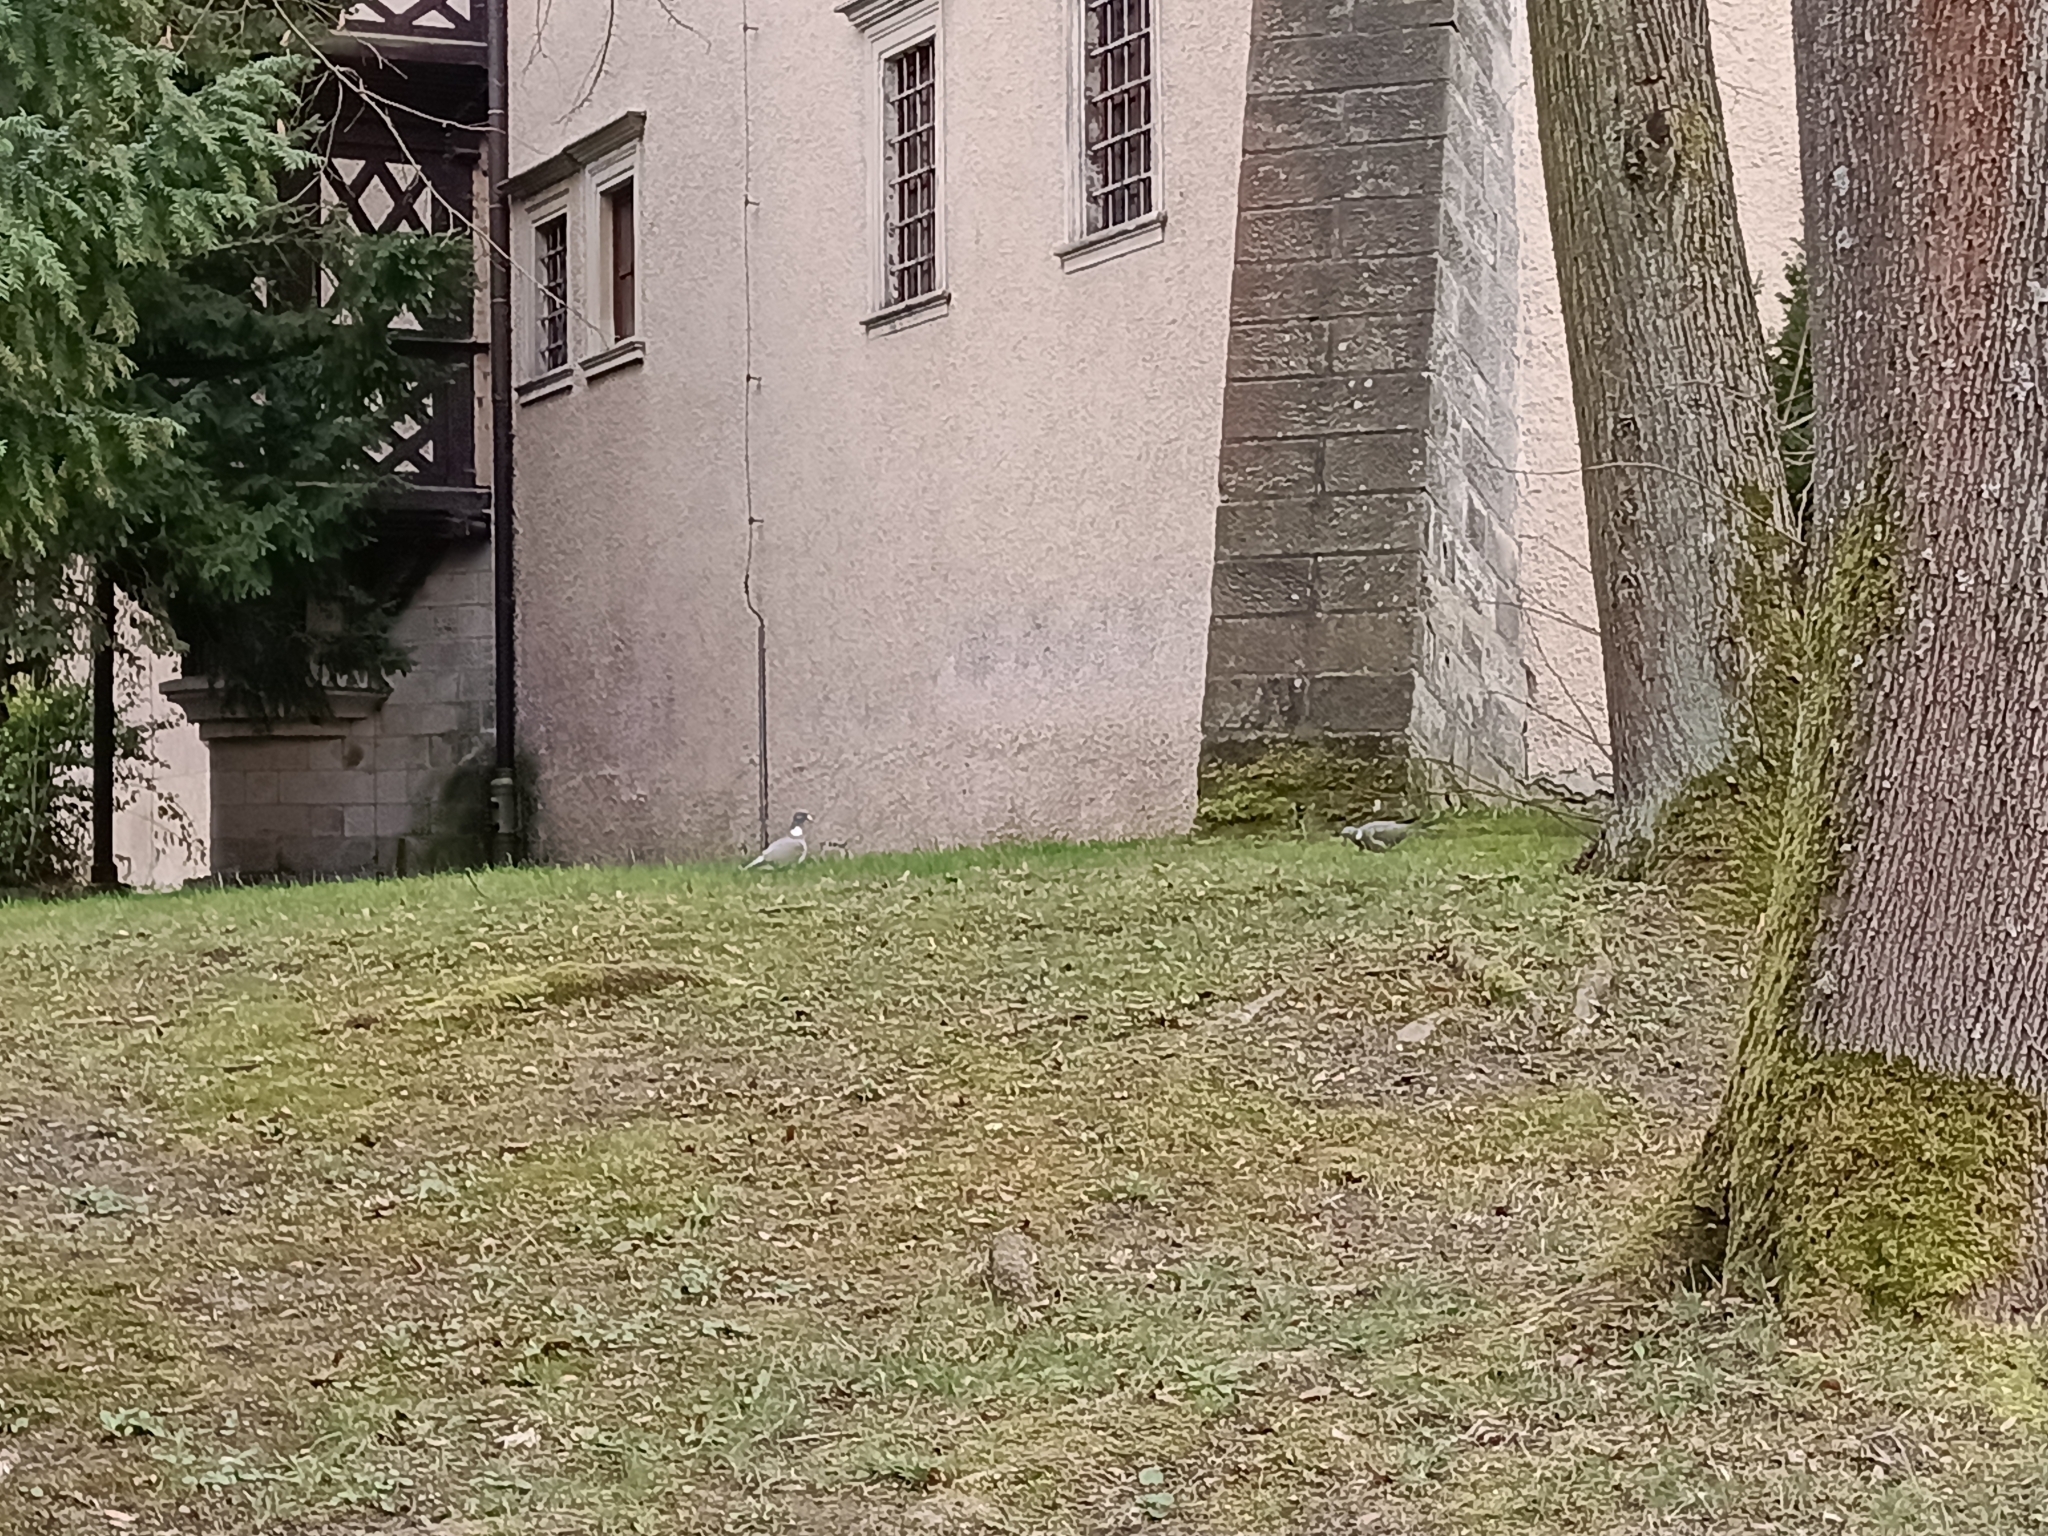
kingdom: Animalia
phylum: Chordata
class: Aves
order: Columbiformes
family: Columbidae
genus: Columba
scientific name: Columba palumbus
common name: Common wood pigeon
